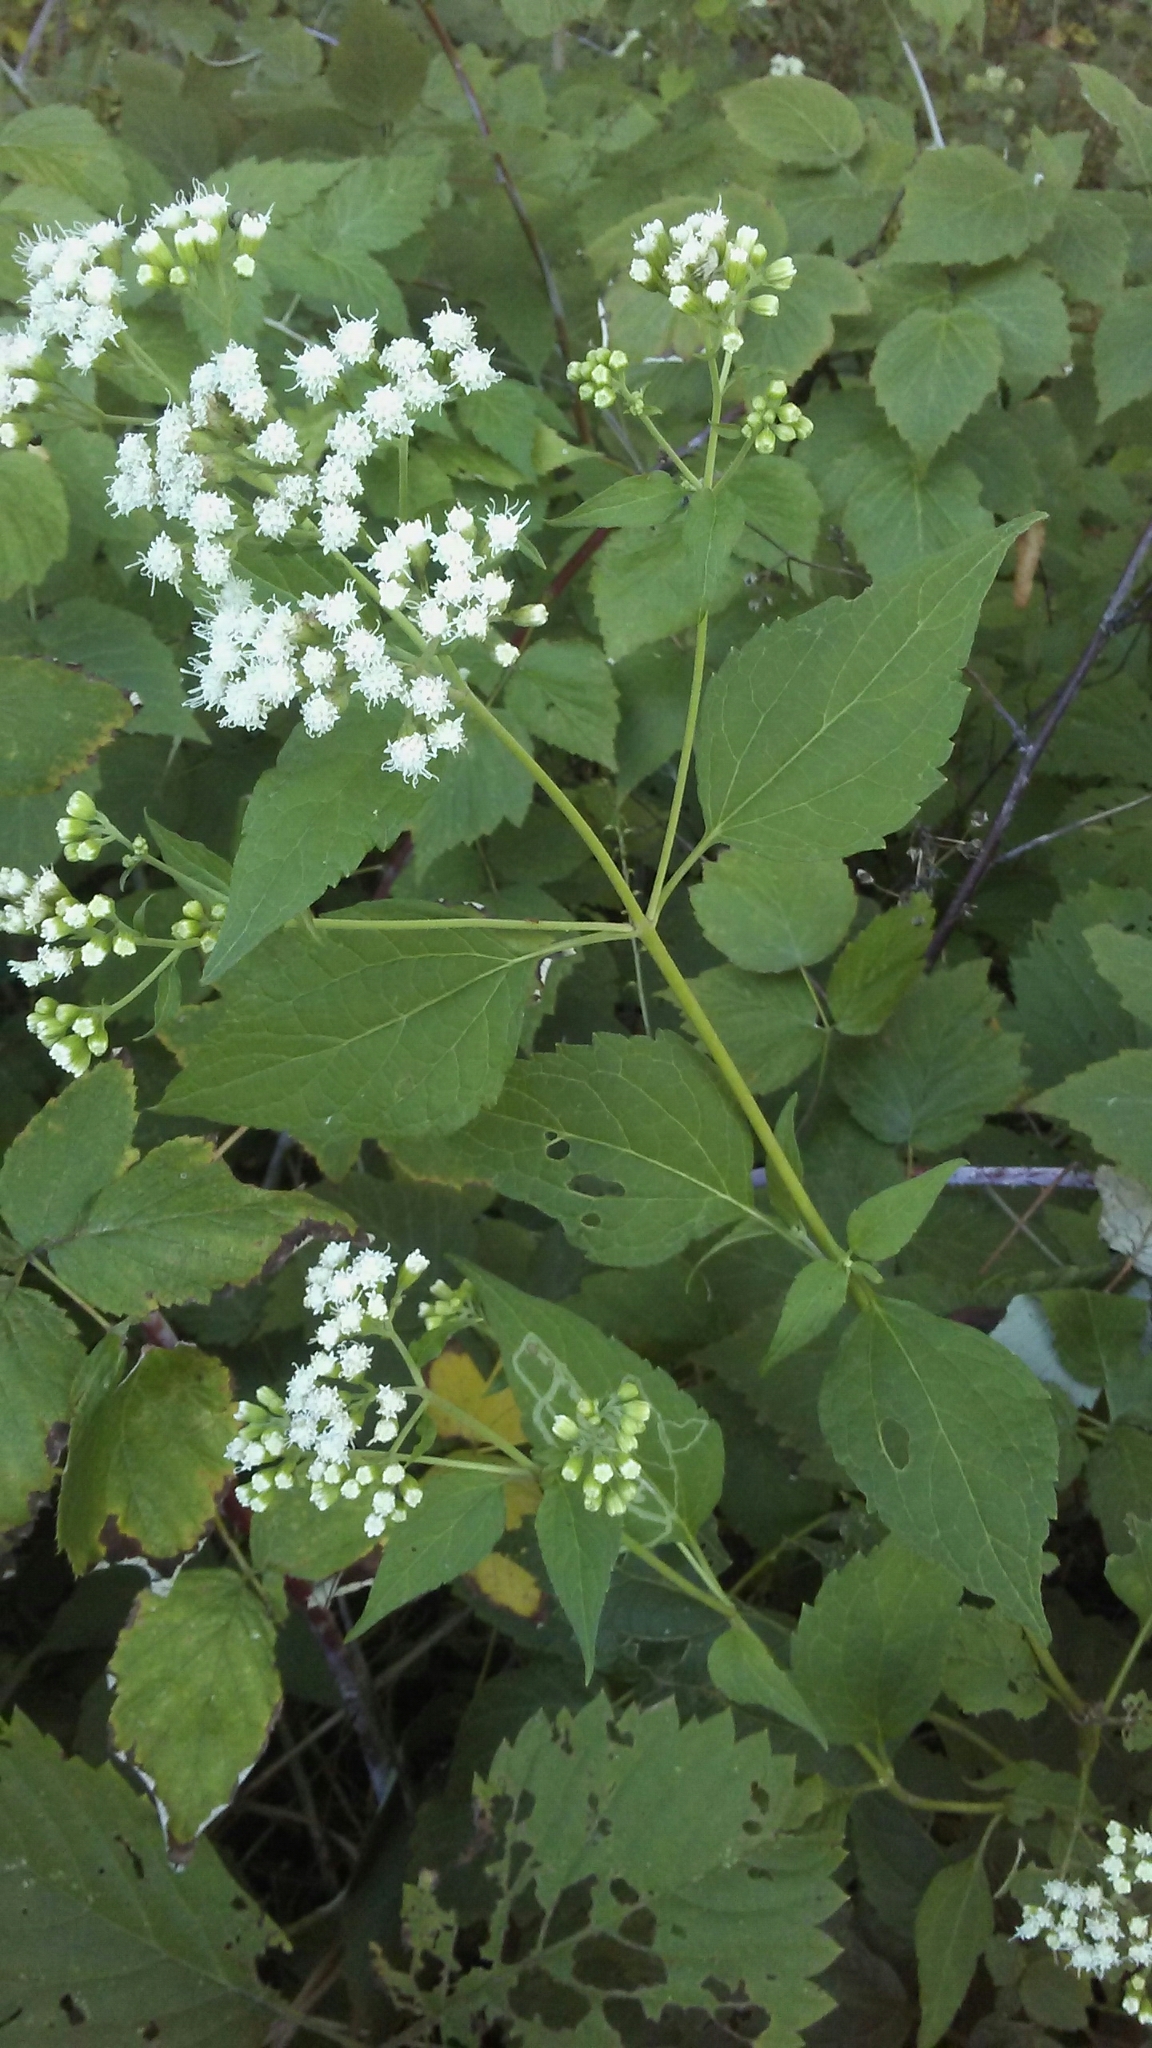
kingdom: Plantae
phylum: Tracheophyta
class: Magnoliopsida
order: Asterales
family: Asteraceae
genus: Ageratina
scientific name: Ageratina altissima
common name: White snakeroot
